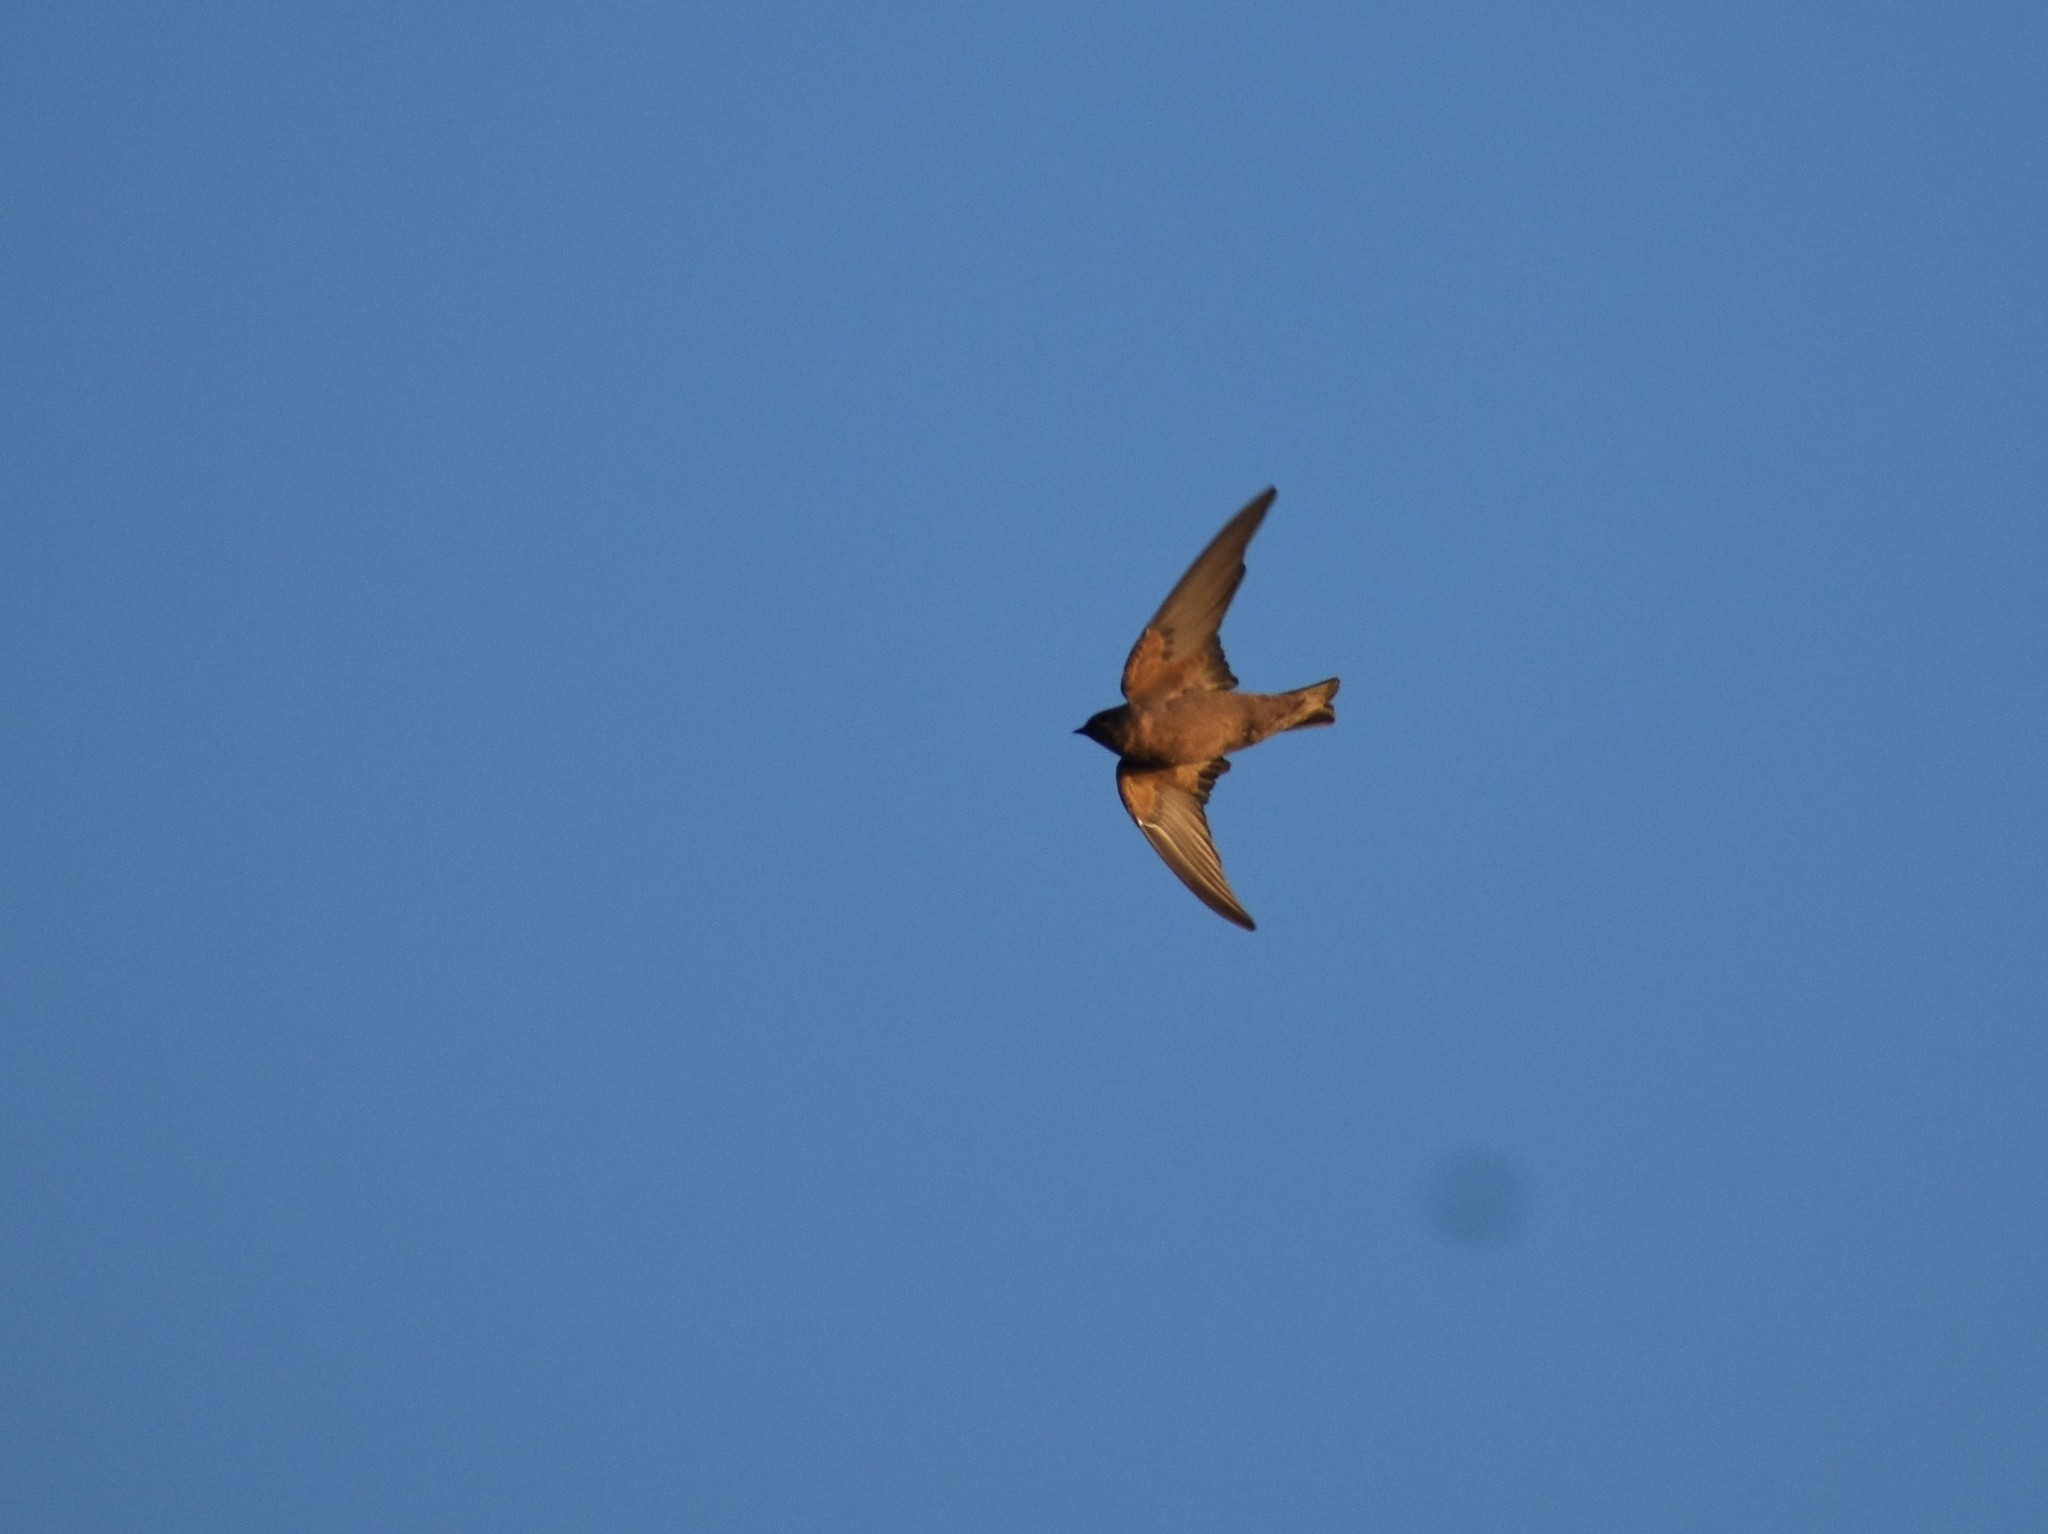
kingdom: Animalia
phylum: Chordata
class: Aves
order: Passeriformes
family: Hirundinidae
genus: Ptyonoprogne
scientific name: Ptyonoprogne fuligula
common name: Rock martin
